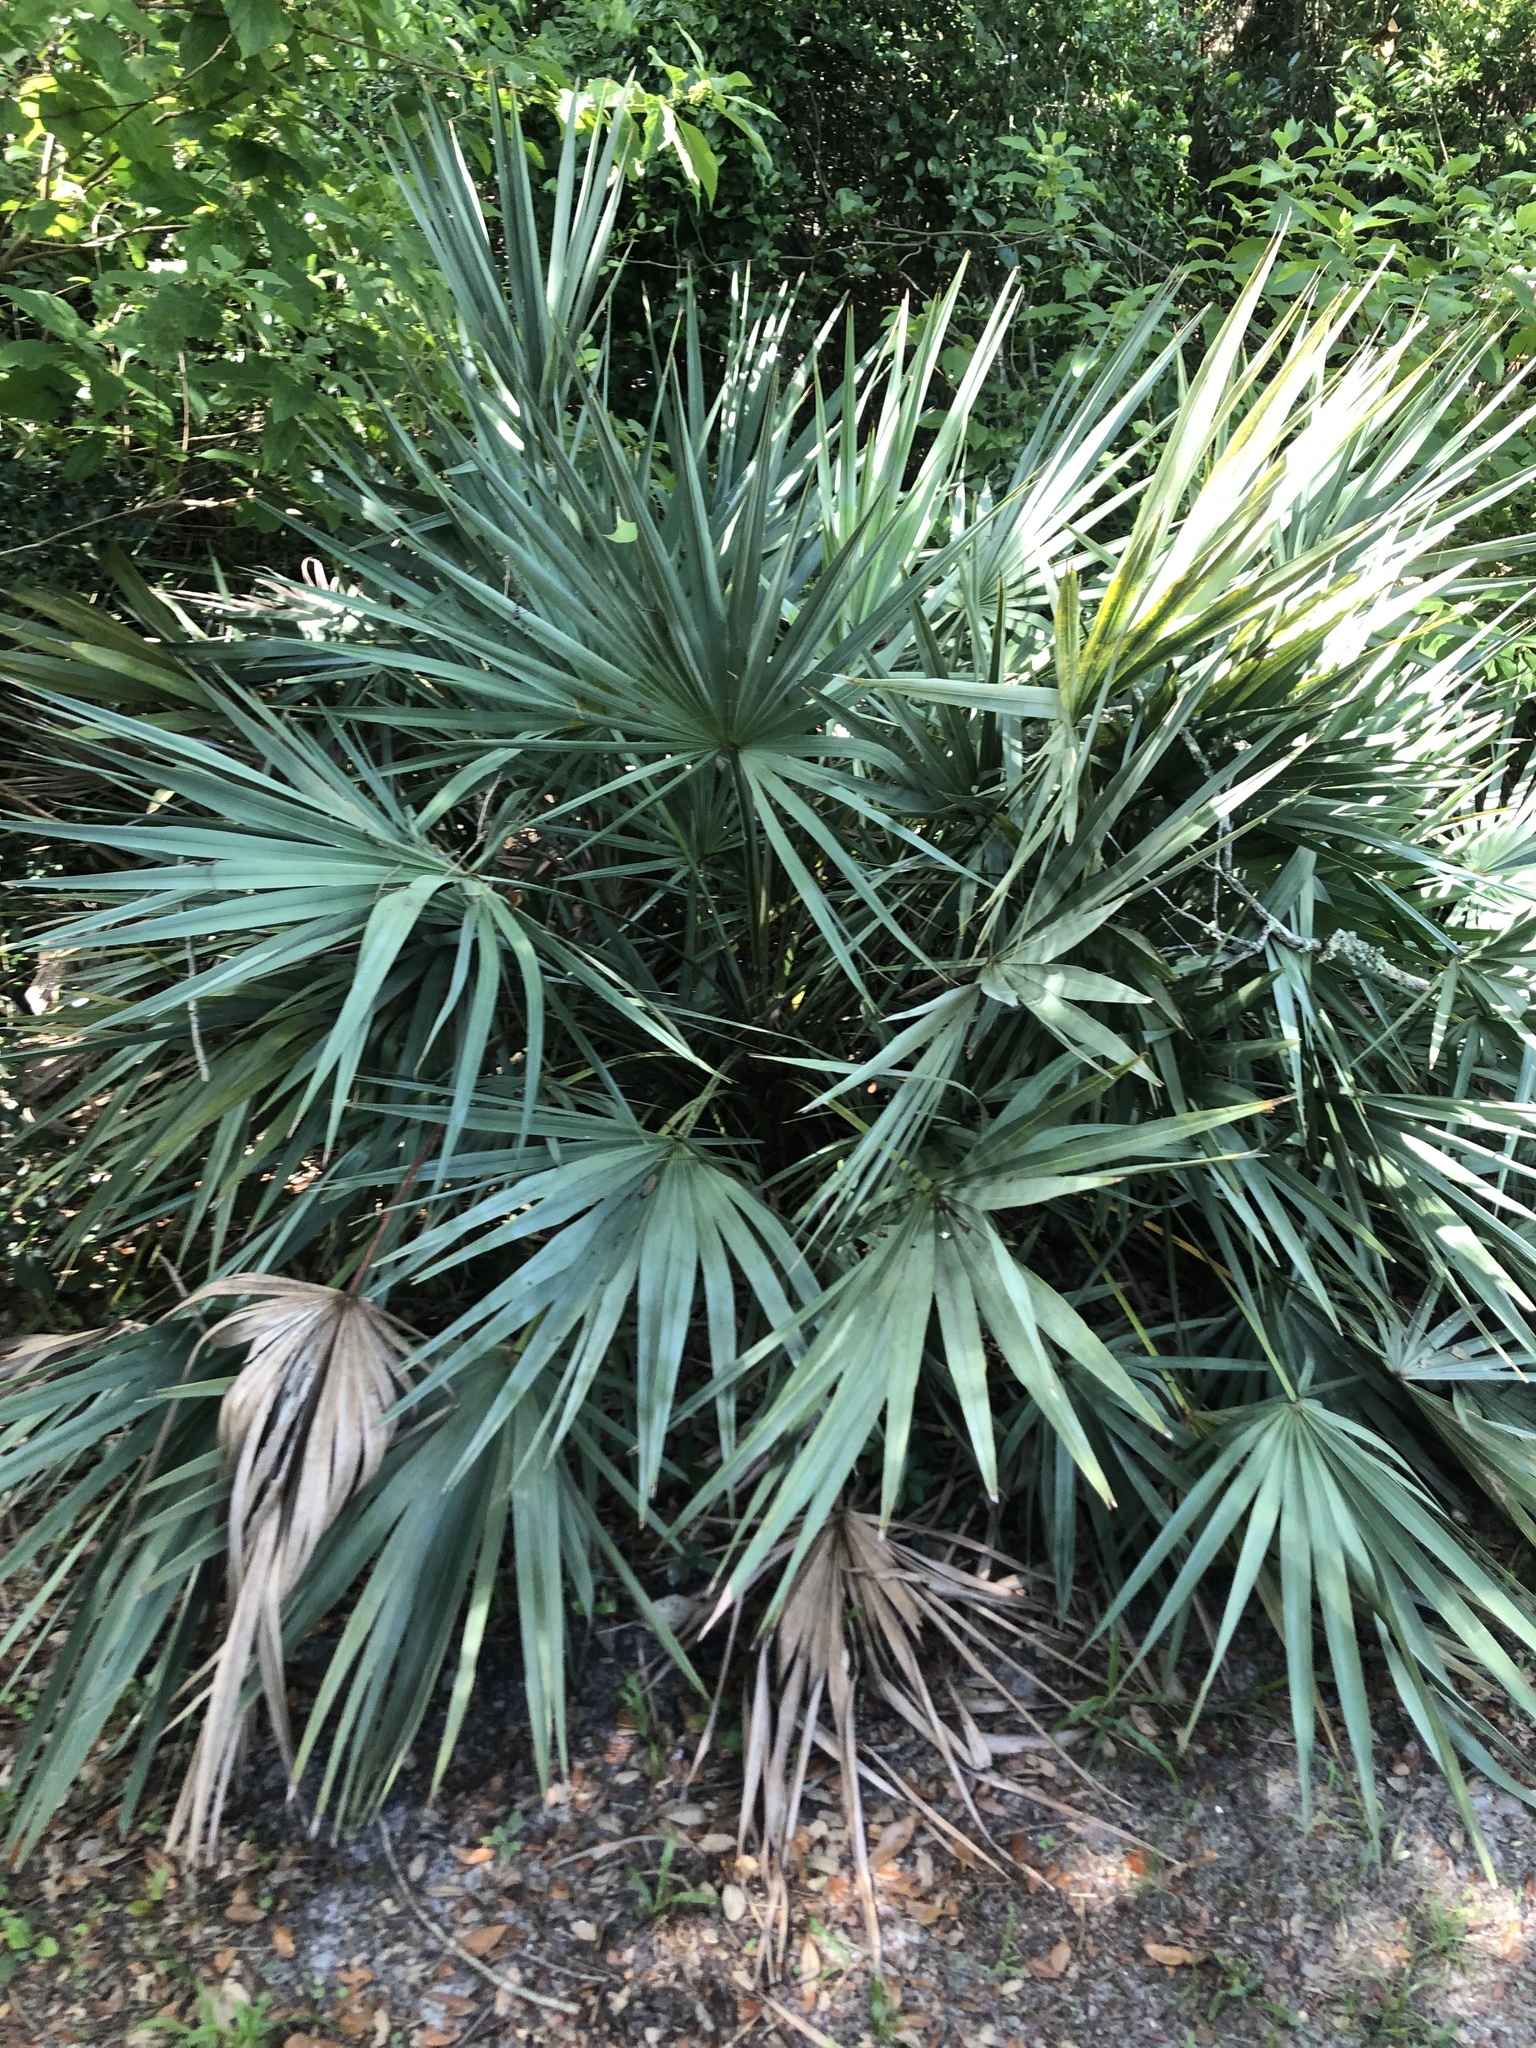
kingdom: Plantae
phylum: Tracheophyta
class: Liliopsida
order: Arecales
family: Arecaceae
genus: Serenoa
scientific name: Serenoa repens
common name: Saw-palmetto
